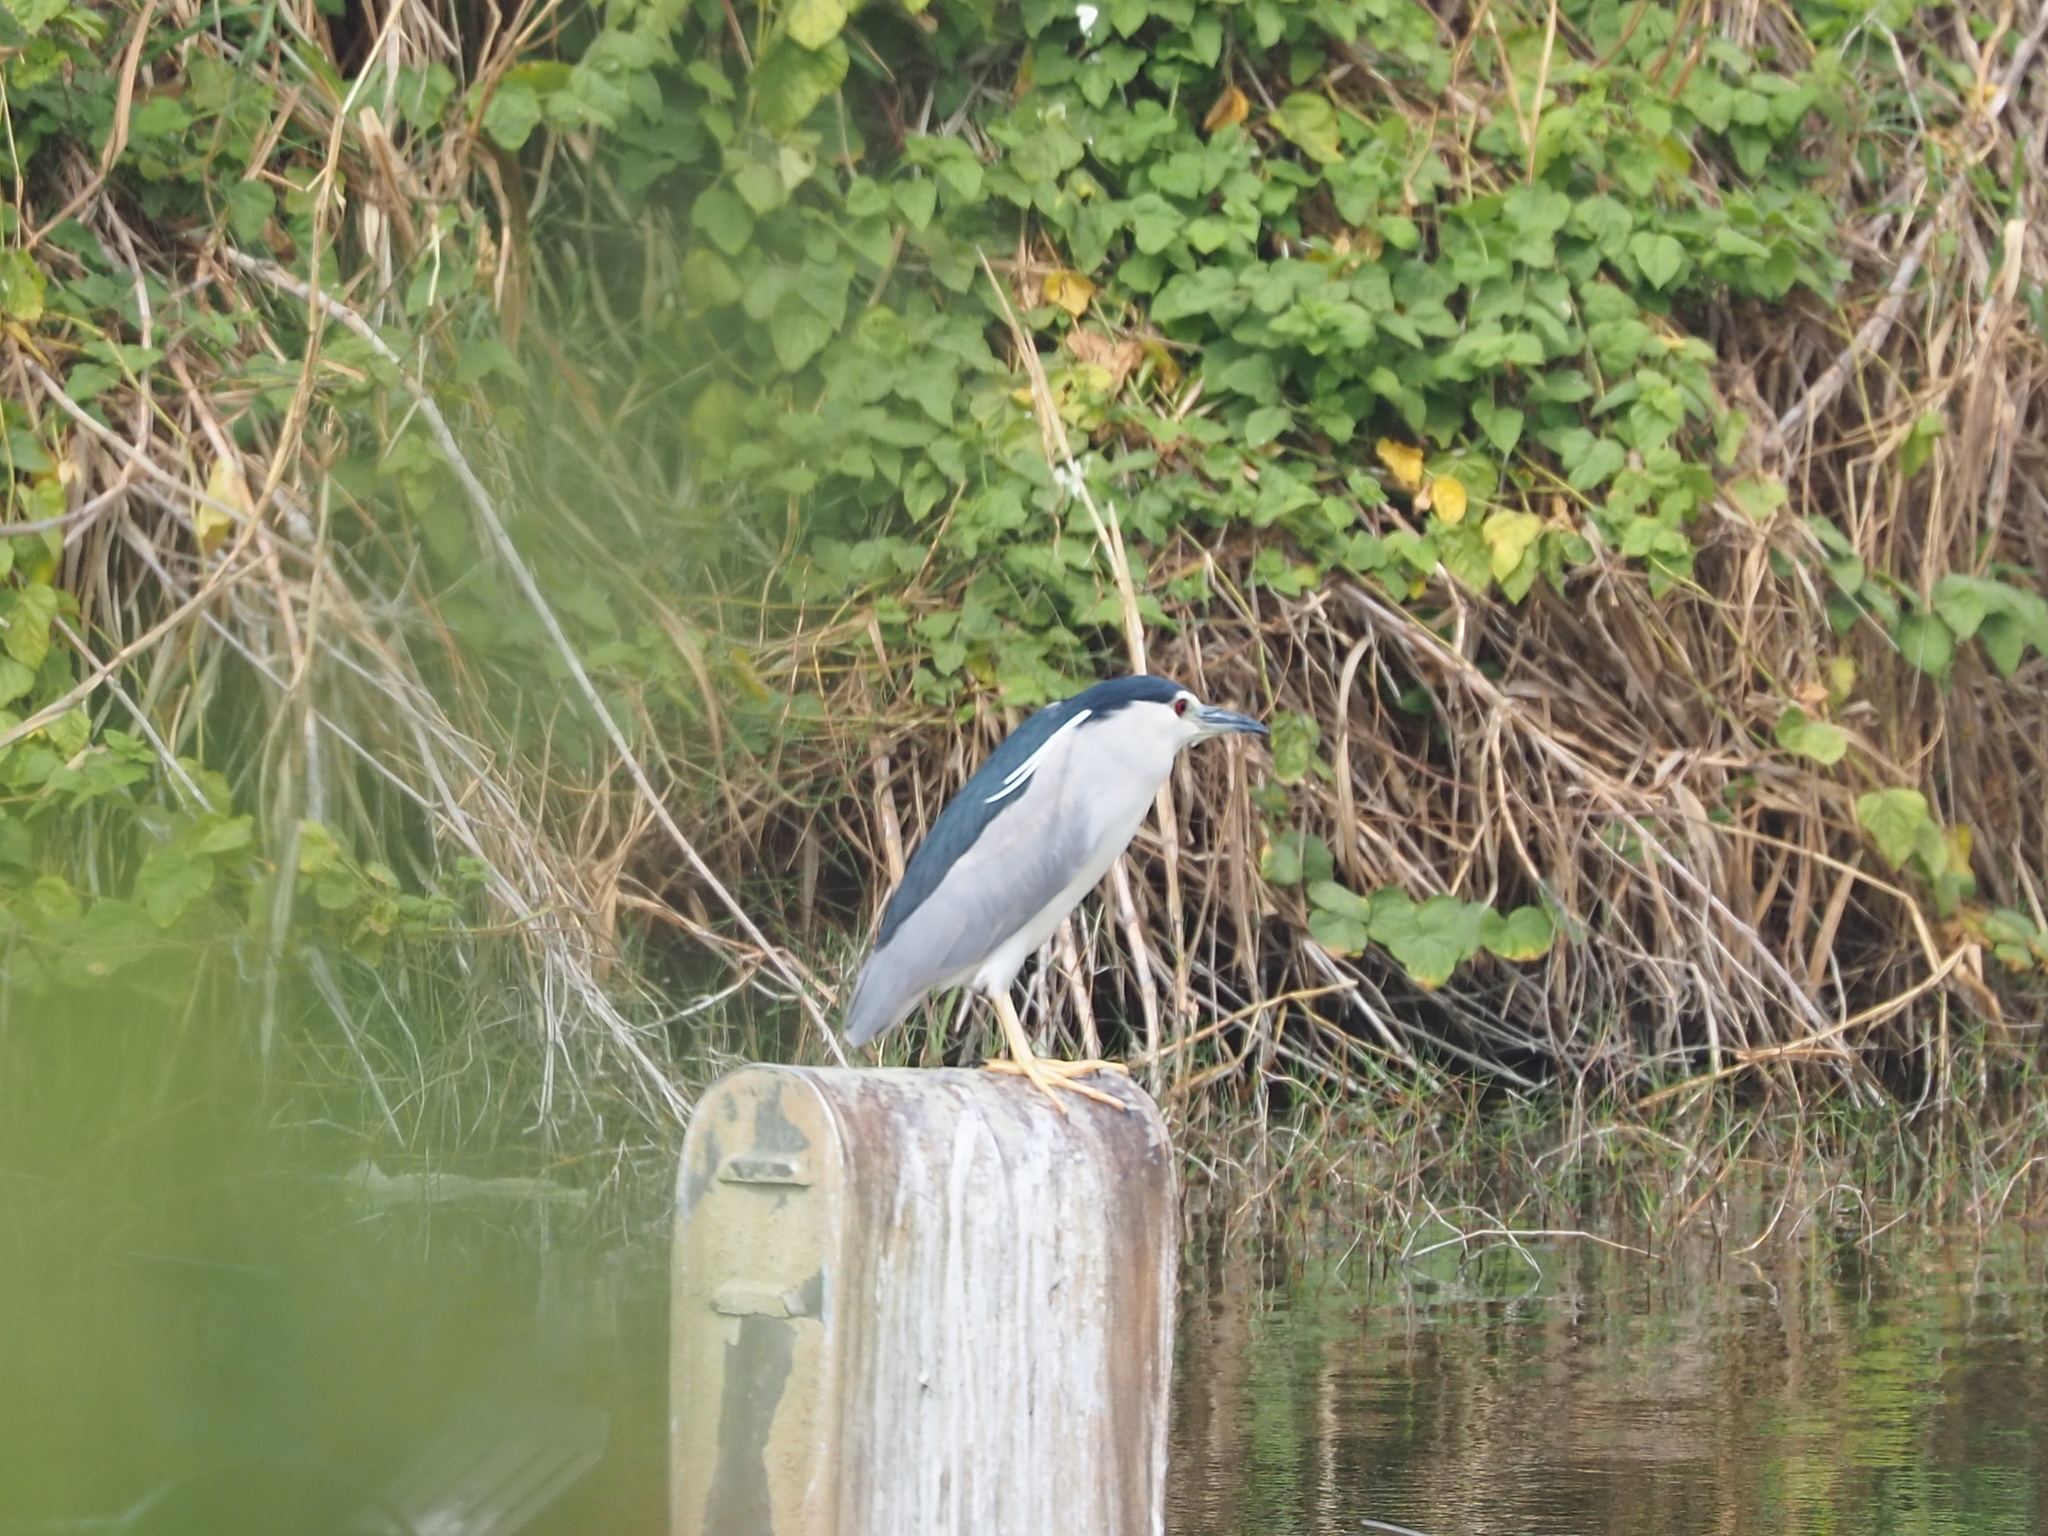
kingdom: Animalia
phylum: Chordata
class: Aves
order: Pelecaniformes
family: Ardeidae
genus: Nycticorax
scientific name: Nycticorax nycticorax
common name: Black-crowned night heron
